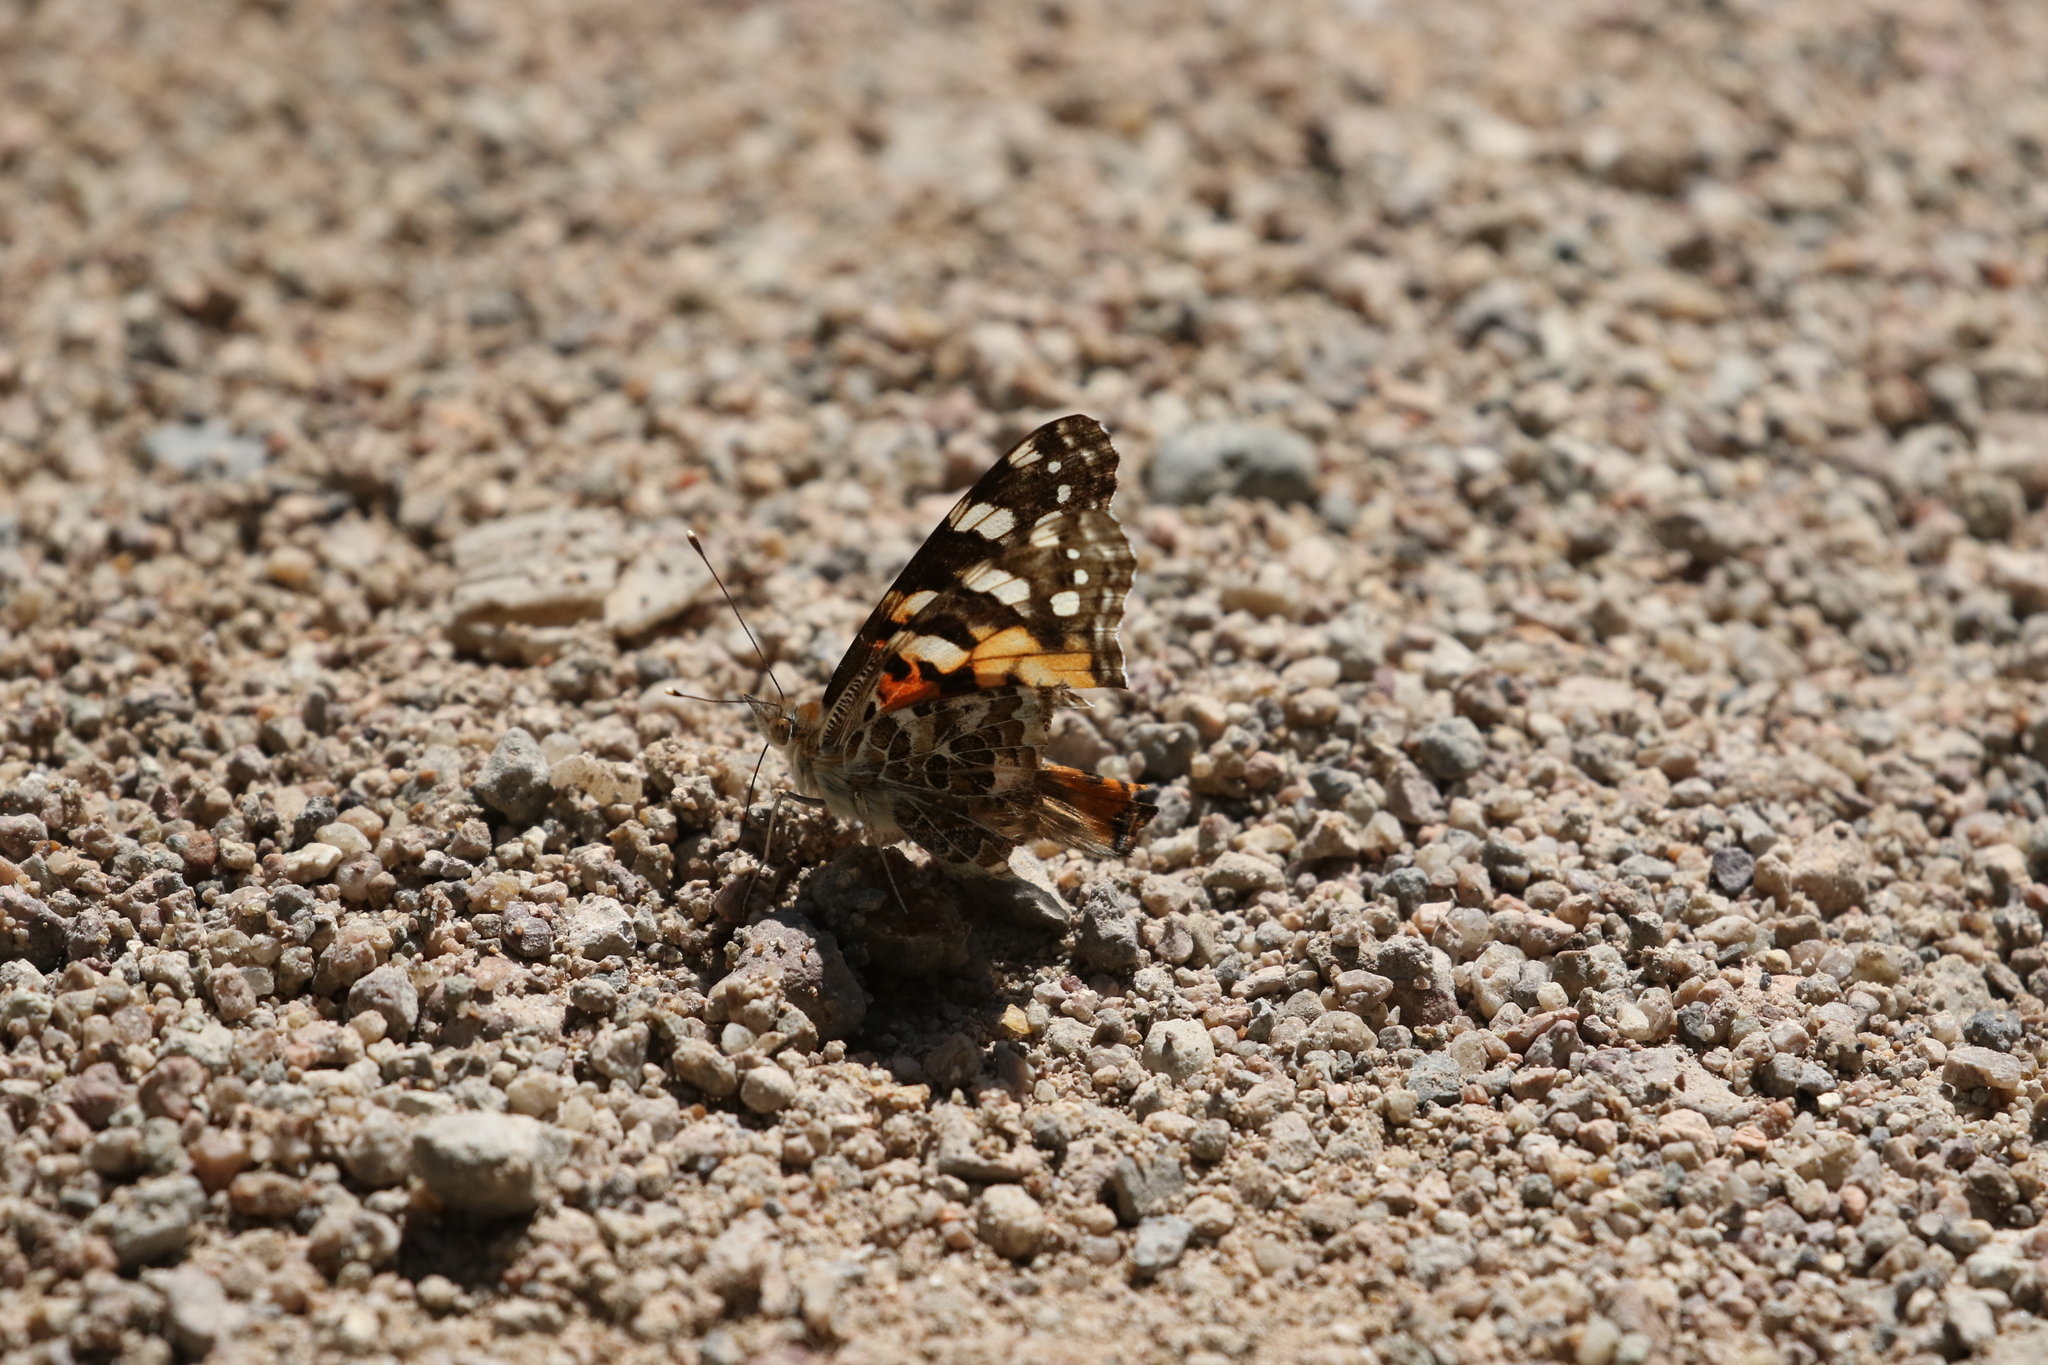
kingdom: Animalia
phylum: Arthropoda
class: Insecta
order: Lepidoptera
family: Nymphalidae
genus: Vanessa
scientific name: Vanessa cardui
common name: Painted lady
